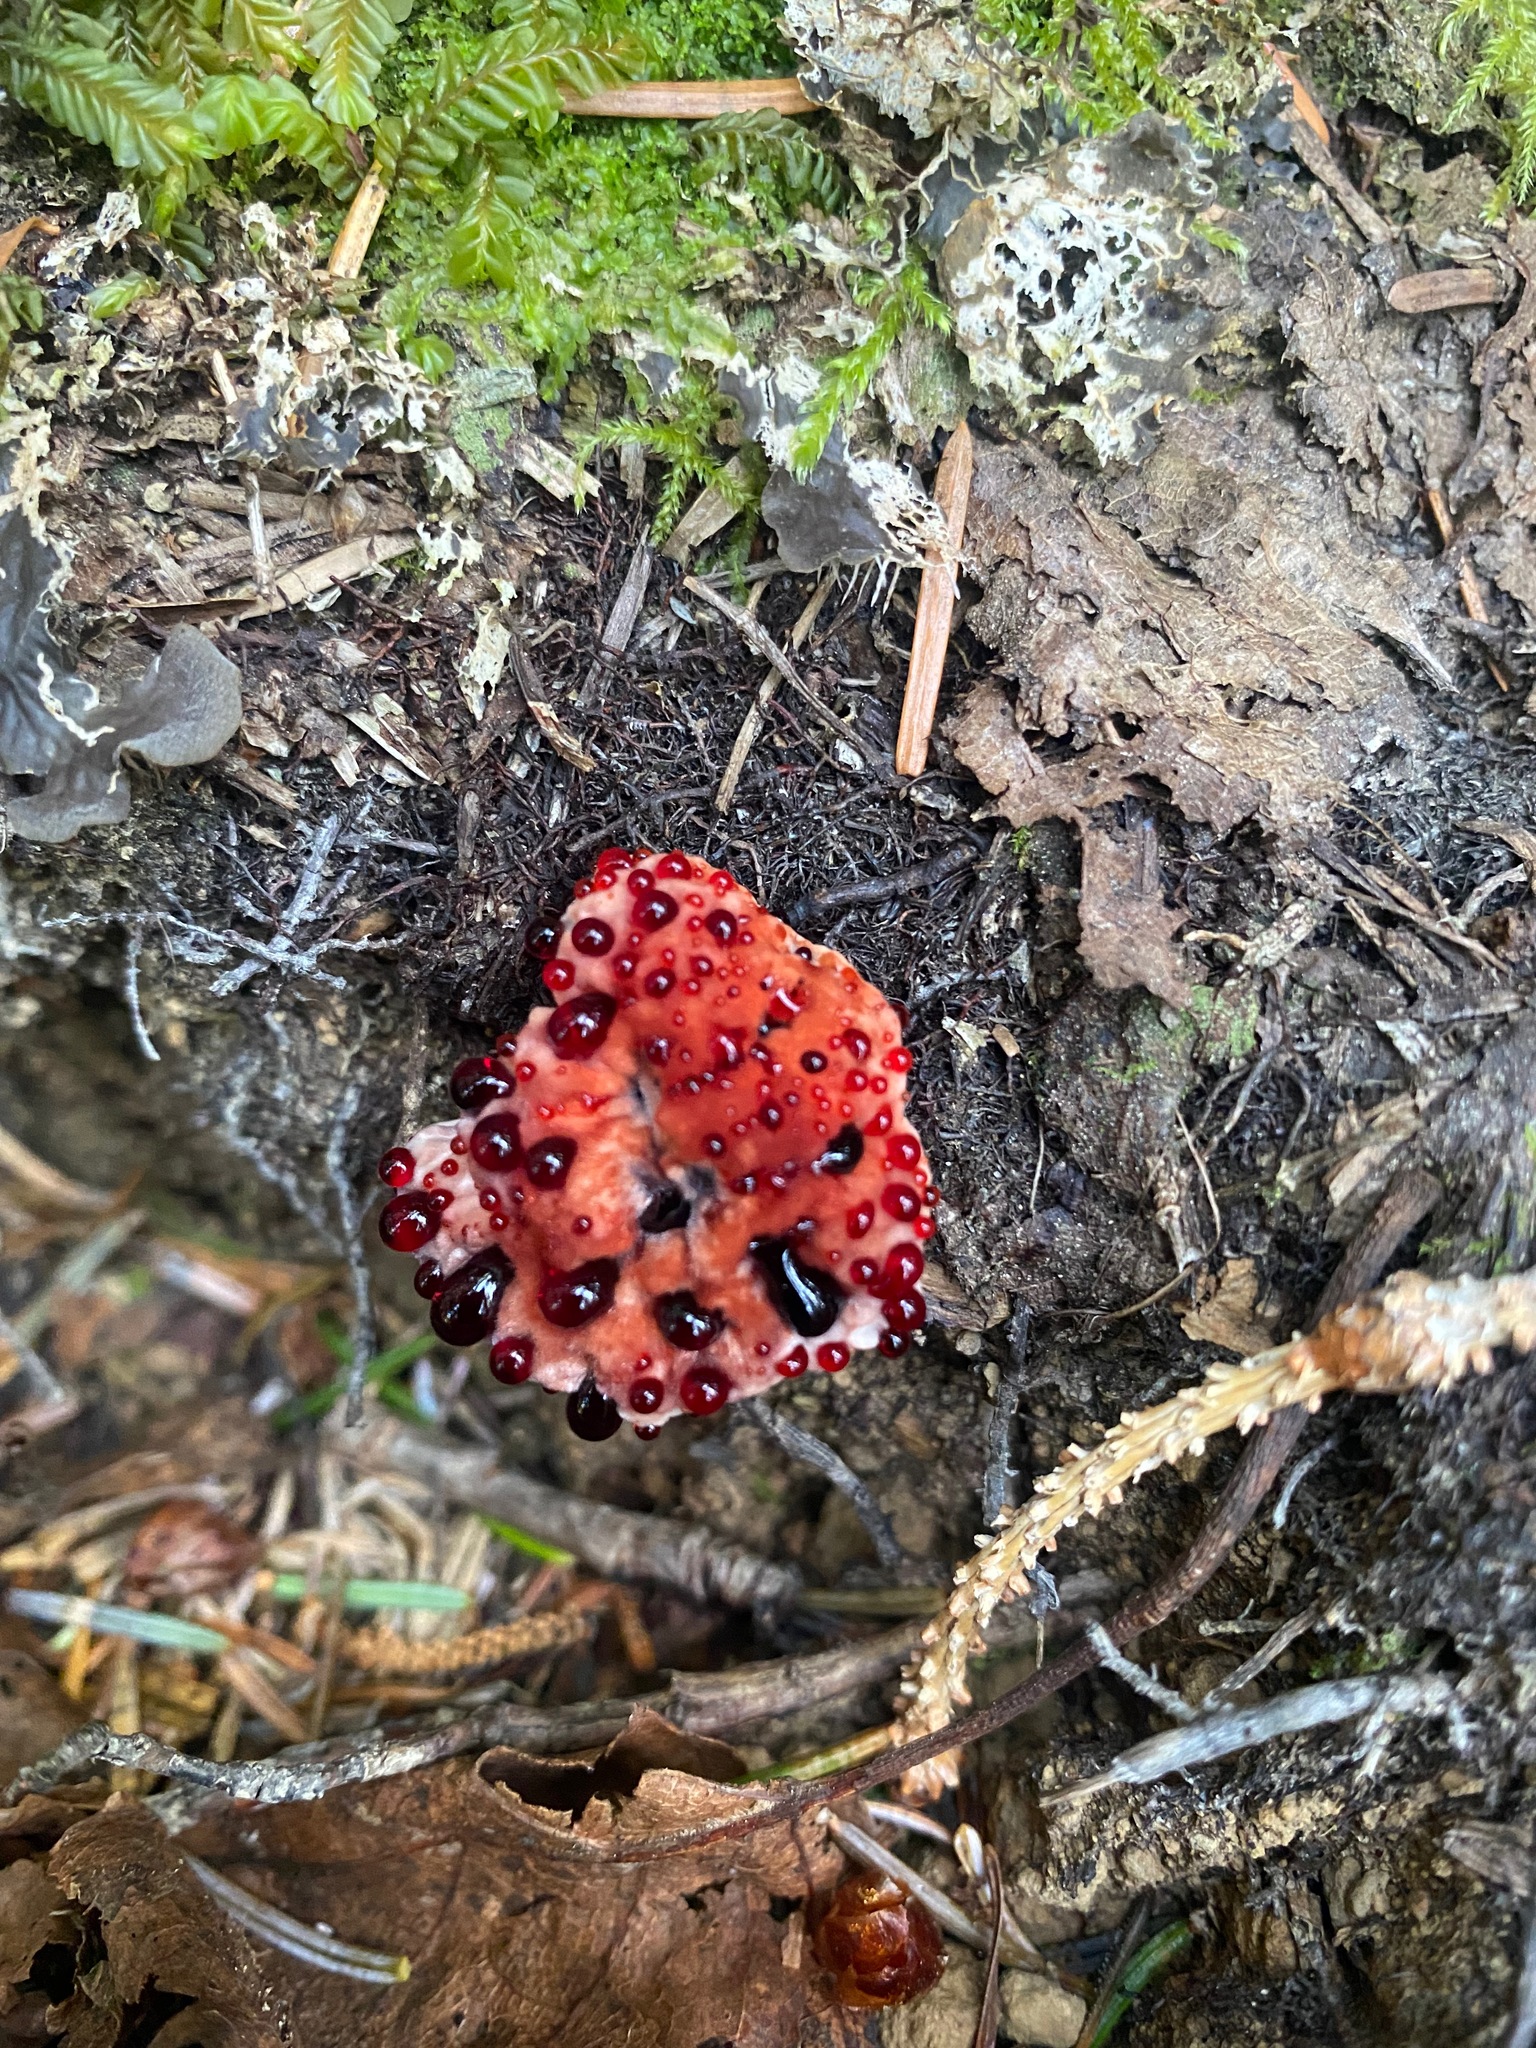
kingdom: Fungi
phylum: Basidiomycota
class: Agaricomycetes
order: Thelephorales
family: Bankeraceae
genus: Hydnellum
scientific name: Hydnellum peckii
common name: Devil's tooth
